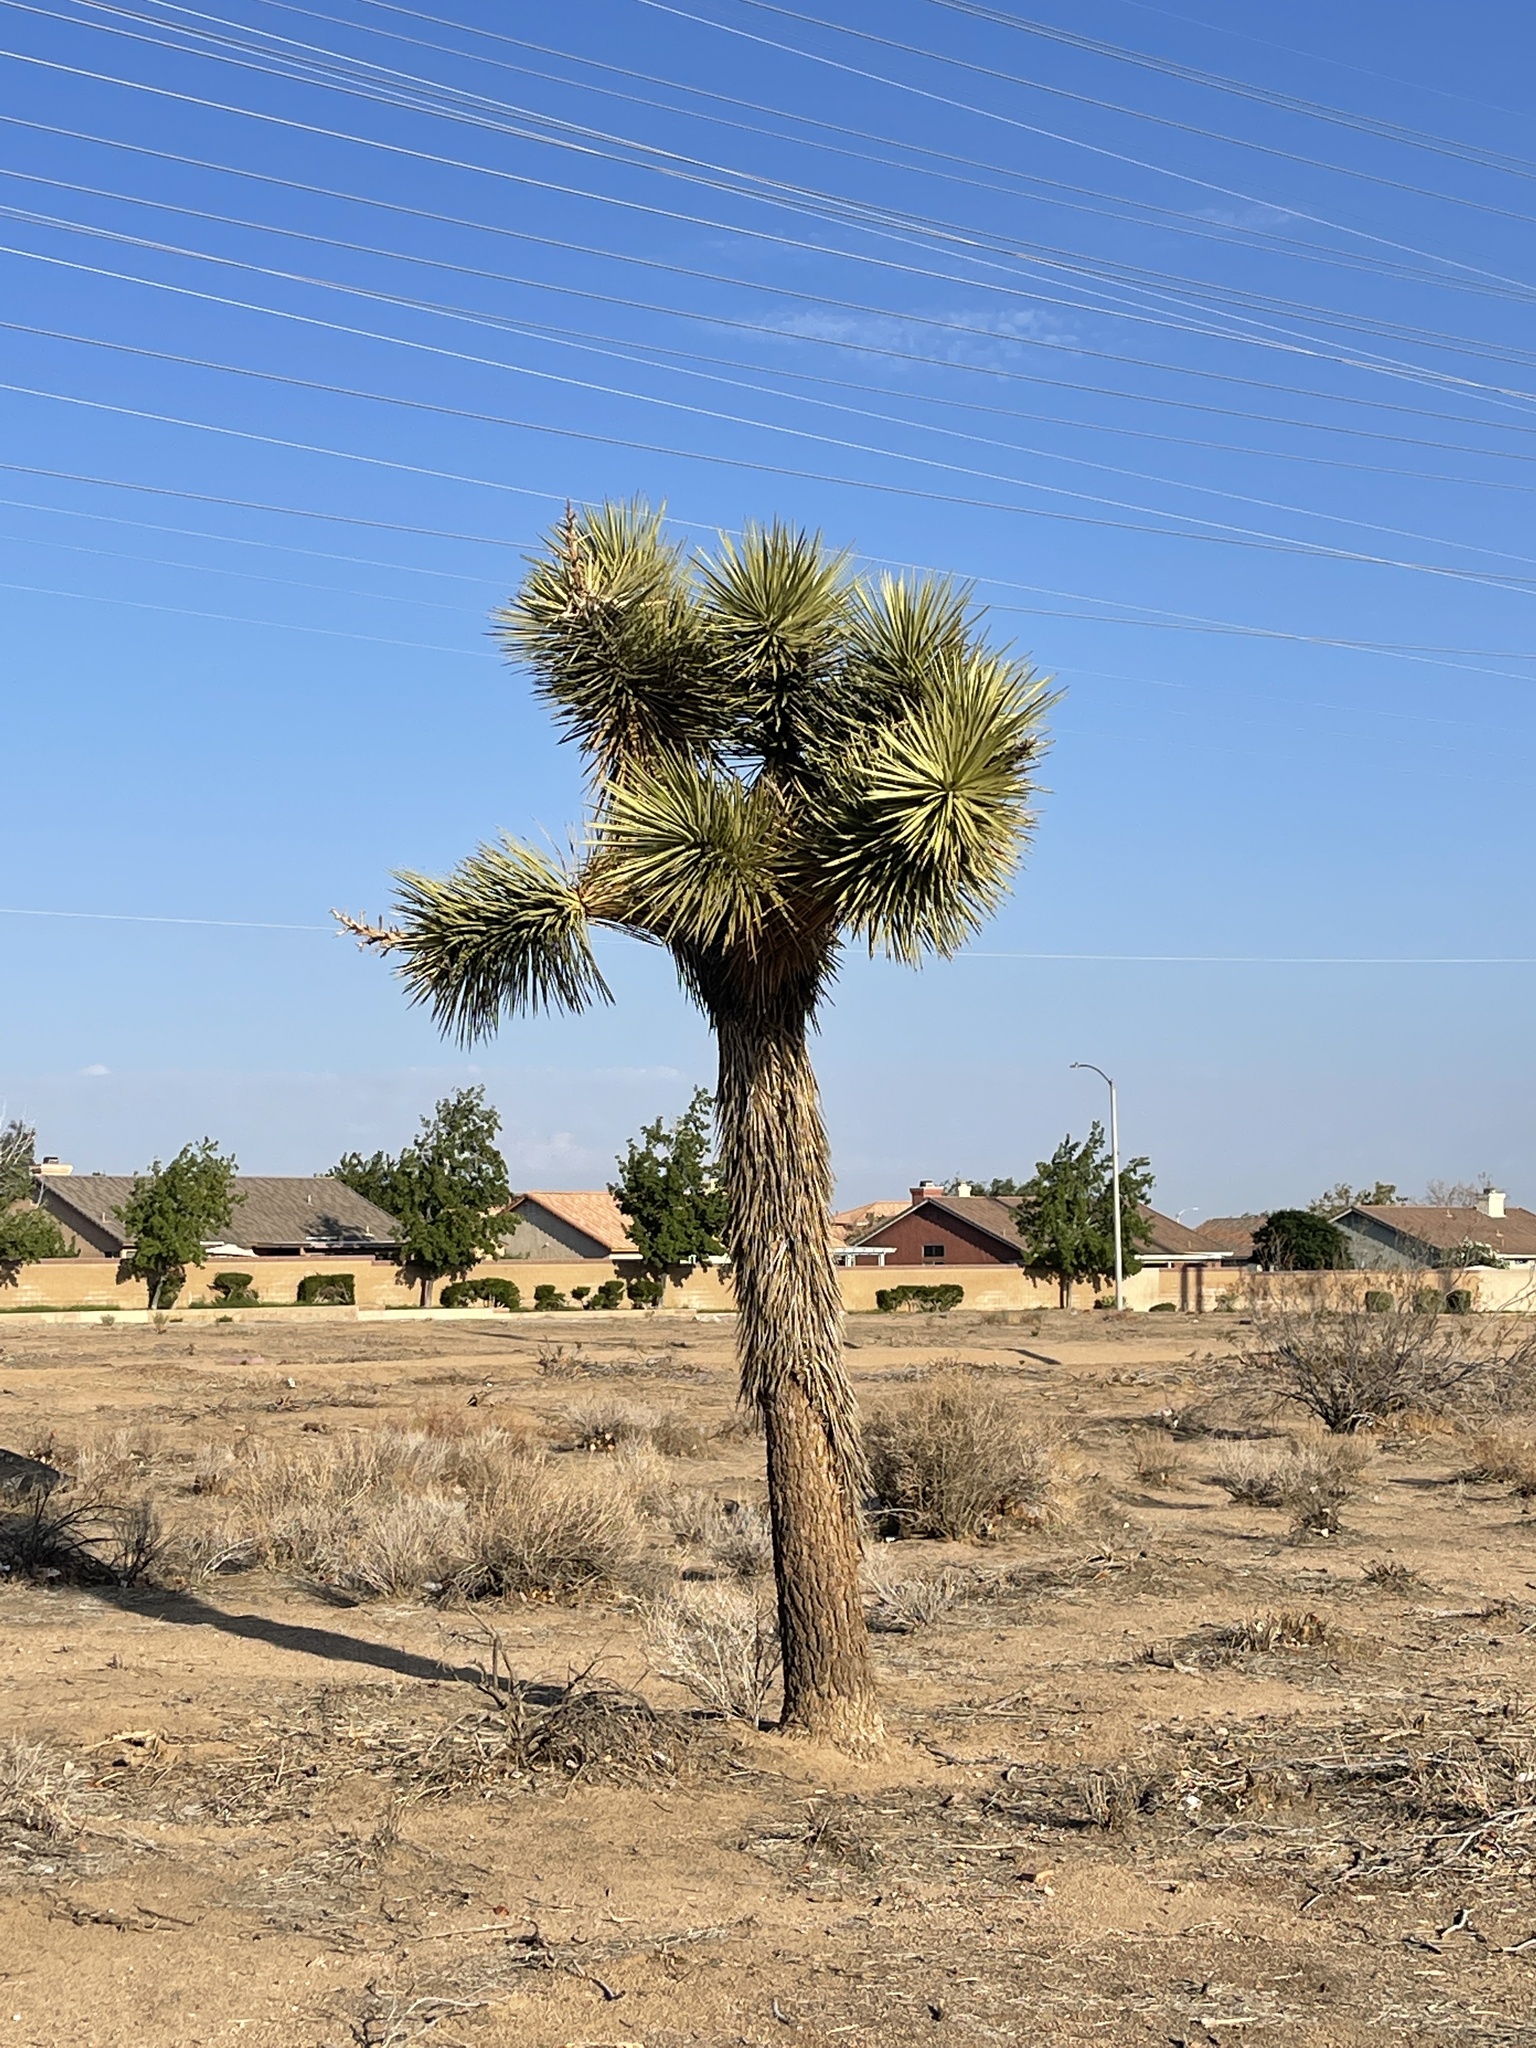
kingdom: Plantae
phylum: Tracheophyta
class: Liliopsida
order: Asparagales
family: Asparagaceae
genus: Yucca
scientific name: Yucca brevifolia
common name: Joshua tree
